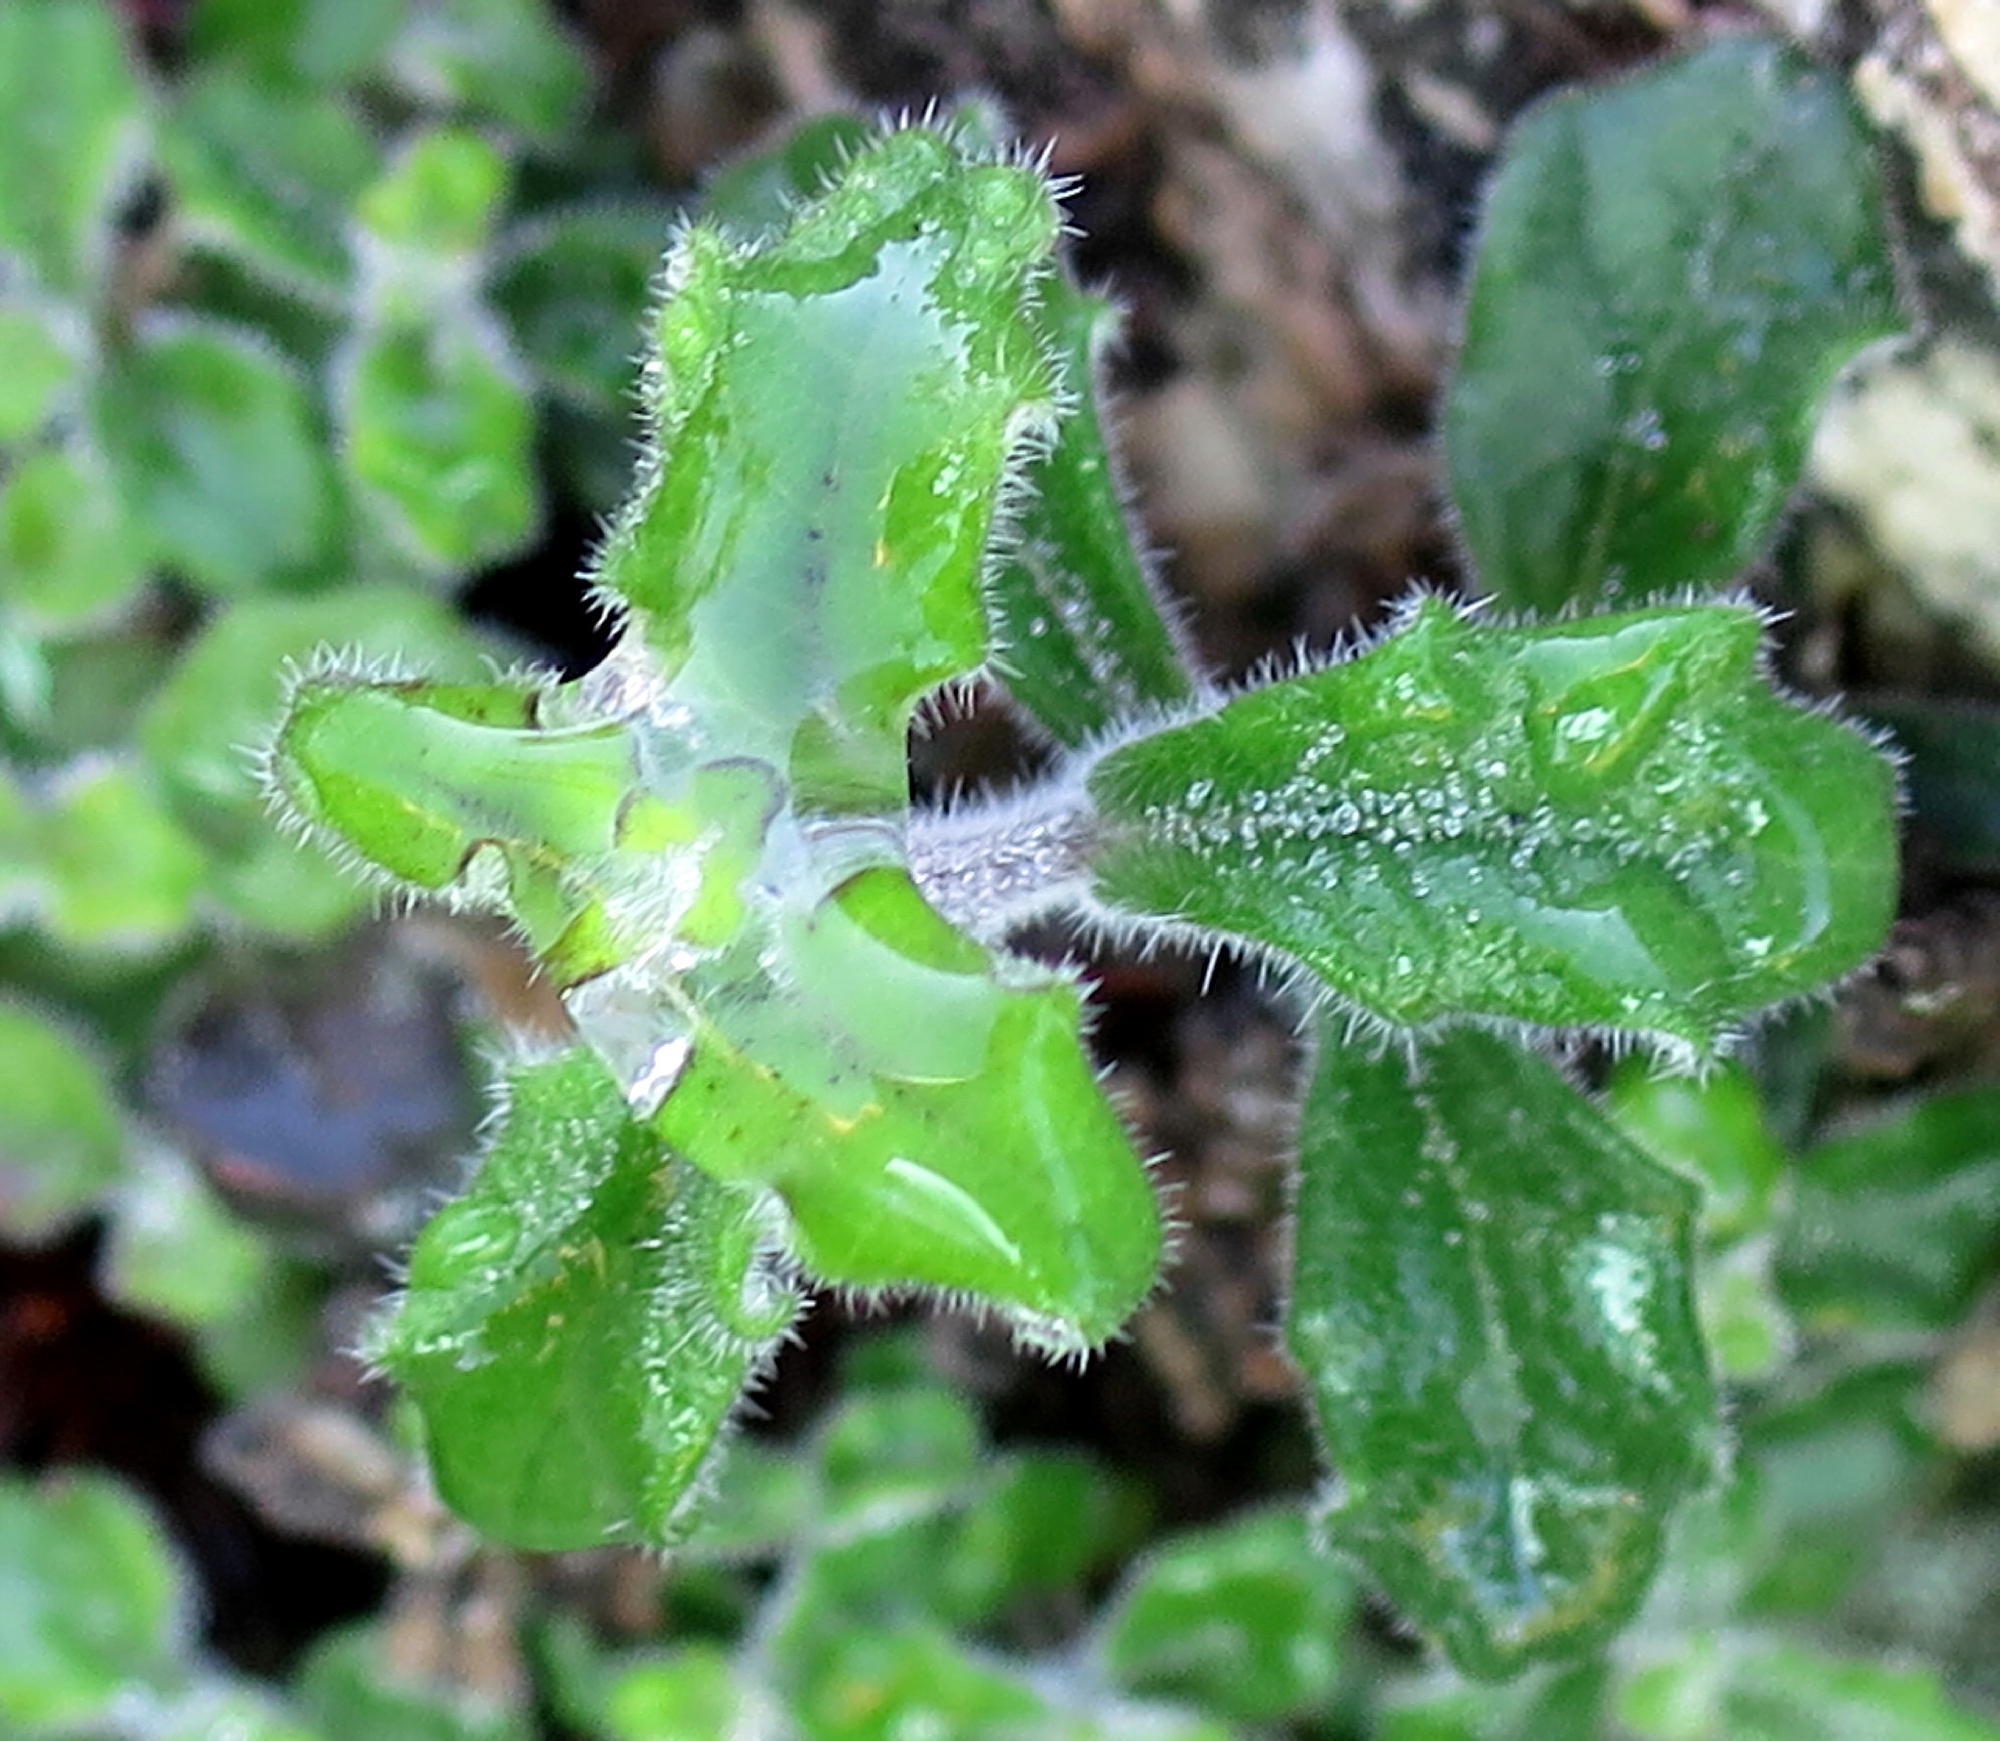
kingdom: Plantae
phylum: Tracheophyta
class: Magnoliopsida
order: Asterales
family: Campanulaceae
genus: Lobelia
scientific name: Lobelia dichroma
